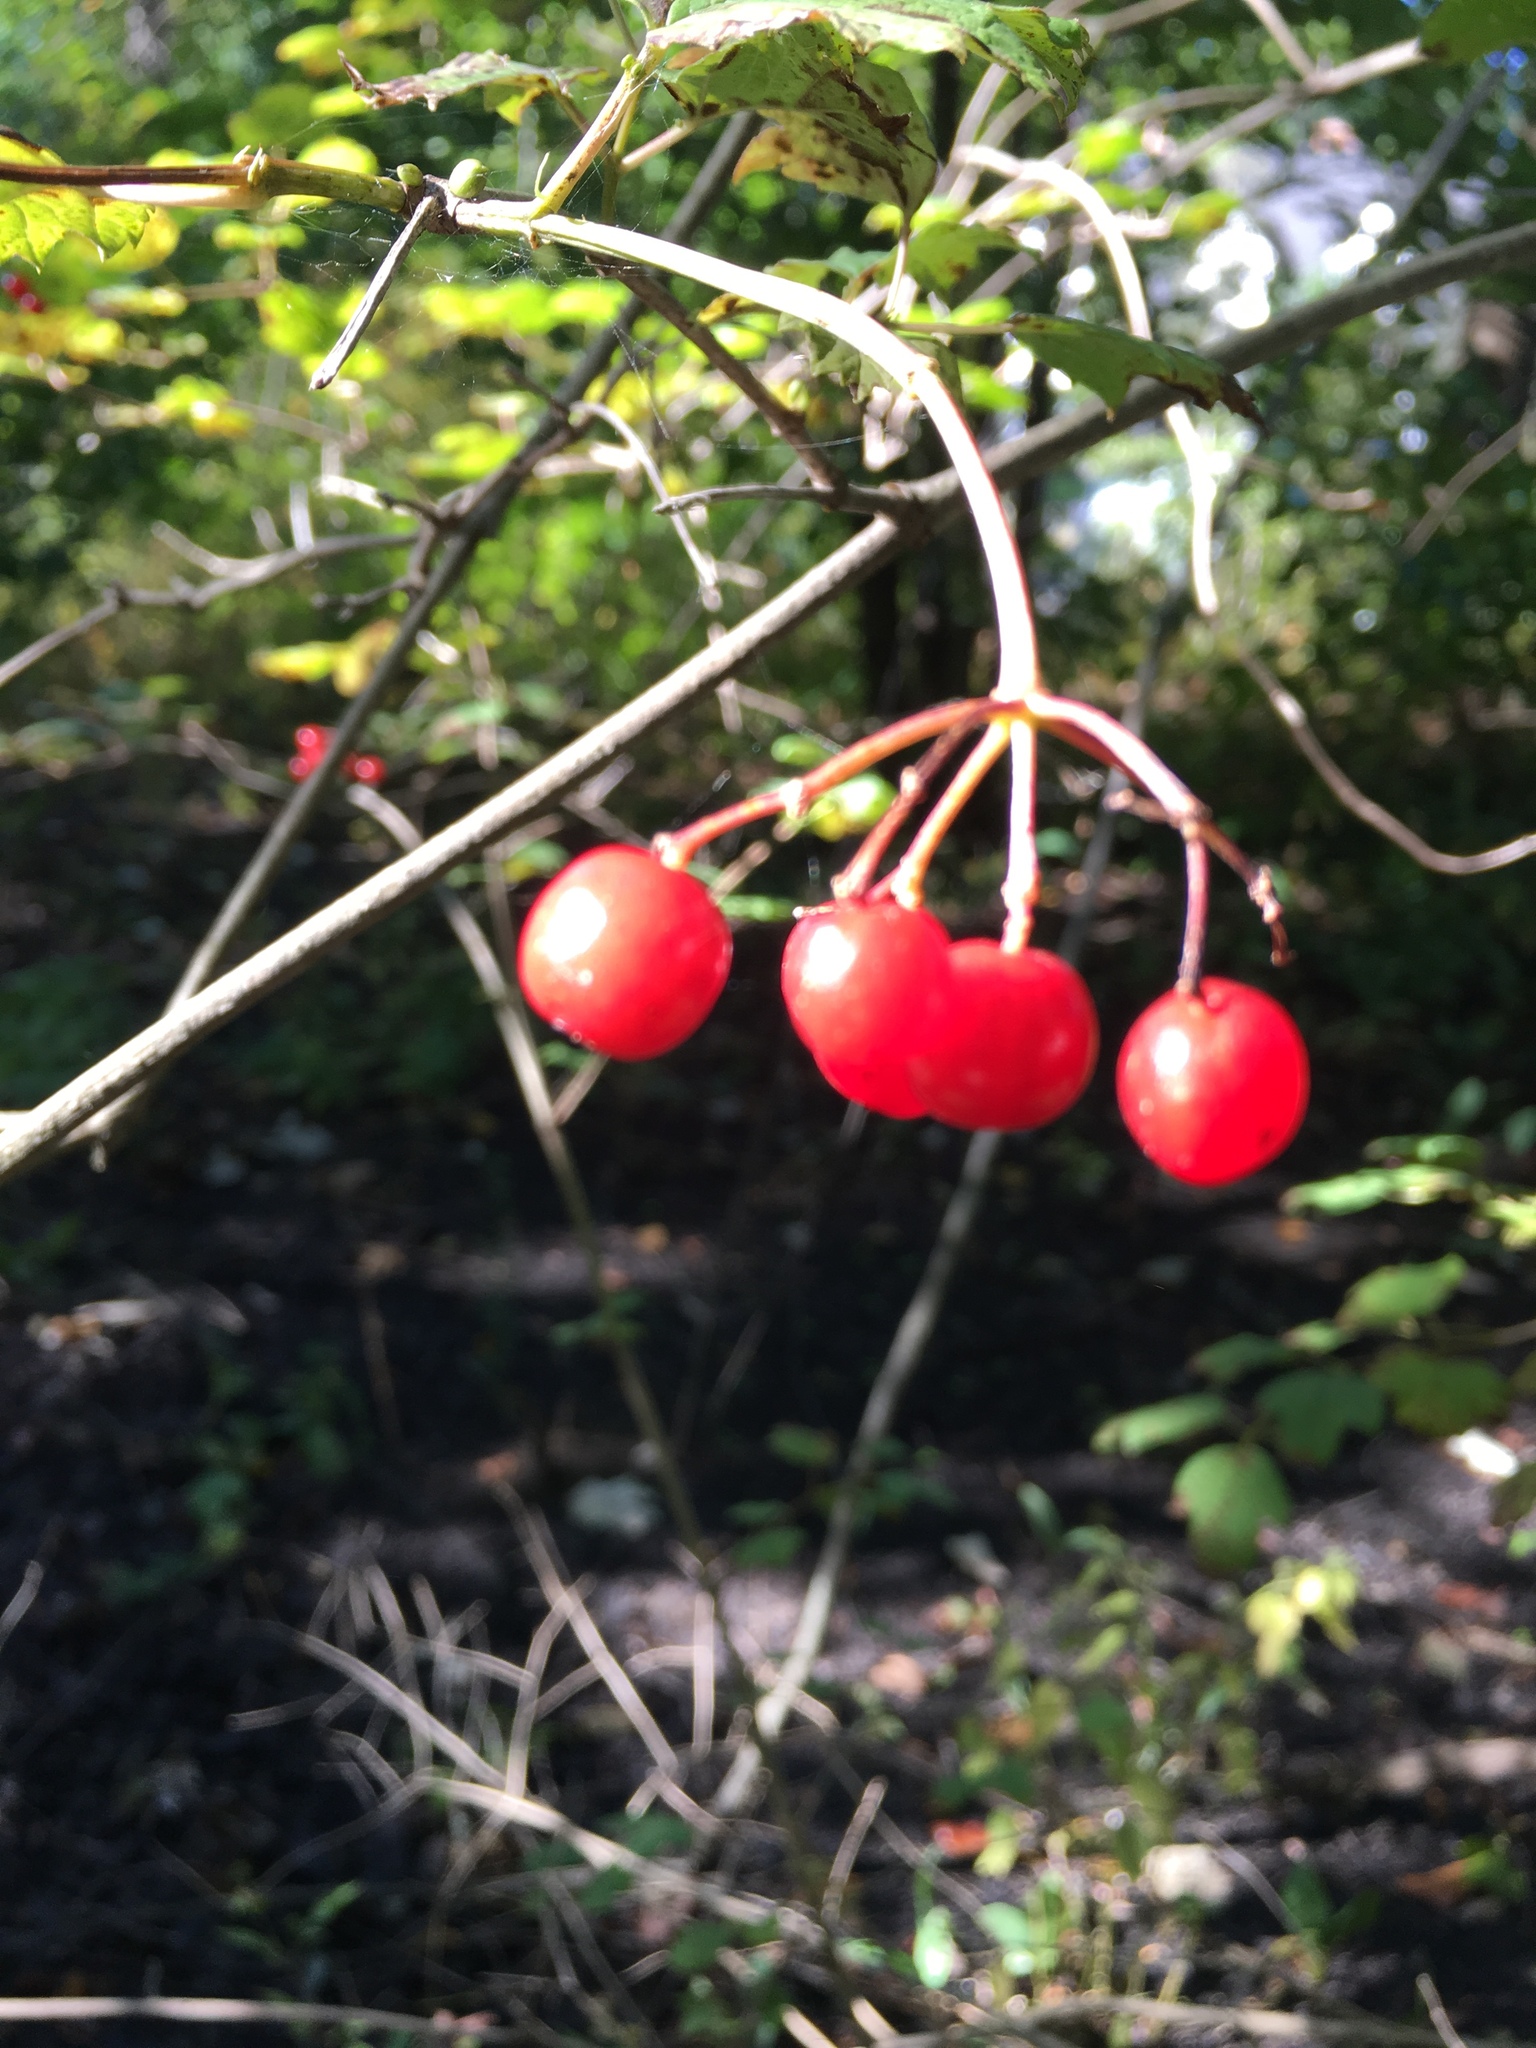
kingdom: Plantae
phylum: Tracheophyta
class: Magnoliopsida
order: Dipsacales
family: Viburnaceae
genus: Viburnum
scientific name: Viburnum opulus
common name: Guelder-rose
